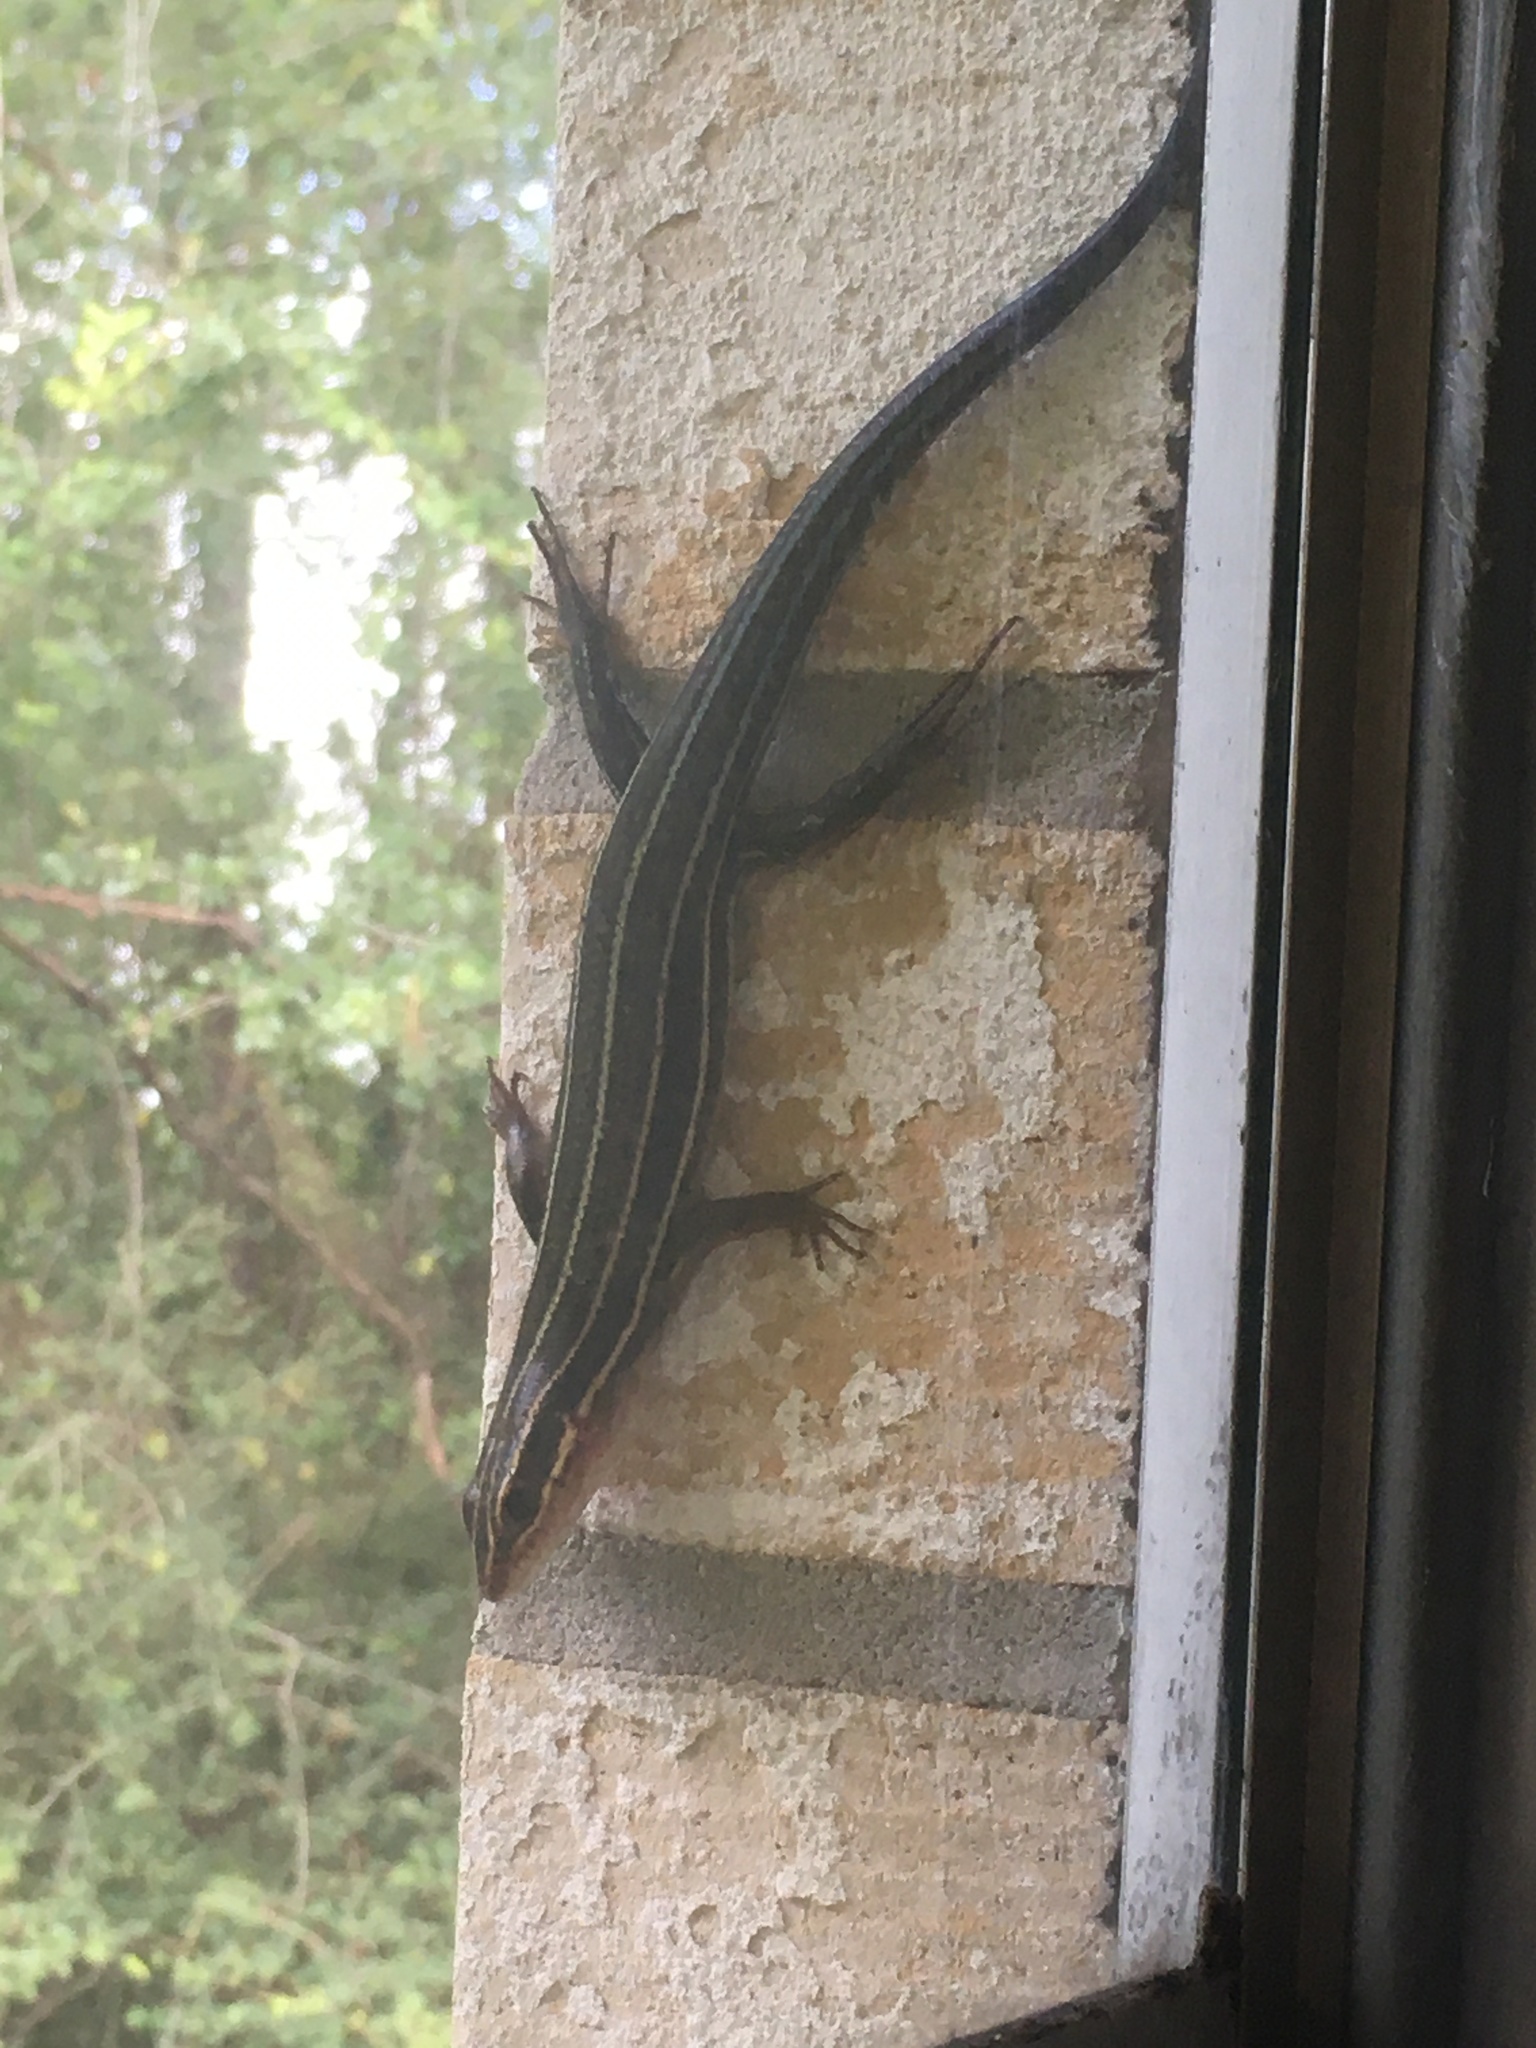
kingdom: Animalia
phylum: Chordata
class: Squamata
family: Scincidae
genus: Plestiodon
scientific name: Plestiodon laticeps
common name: Broadhead skink
